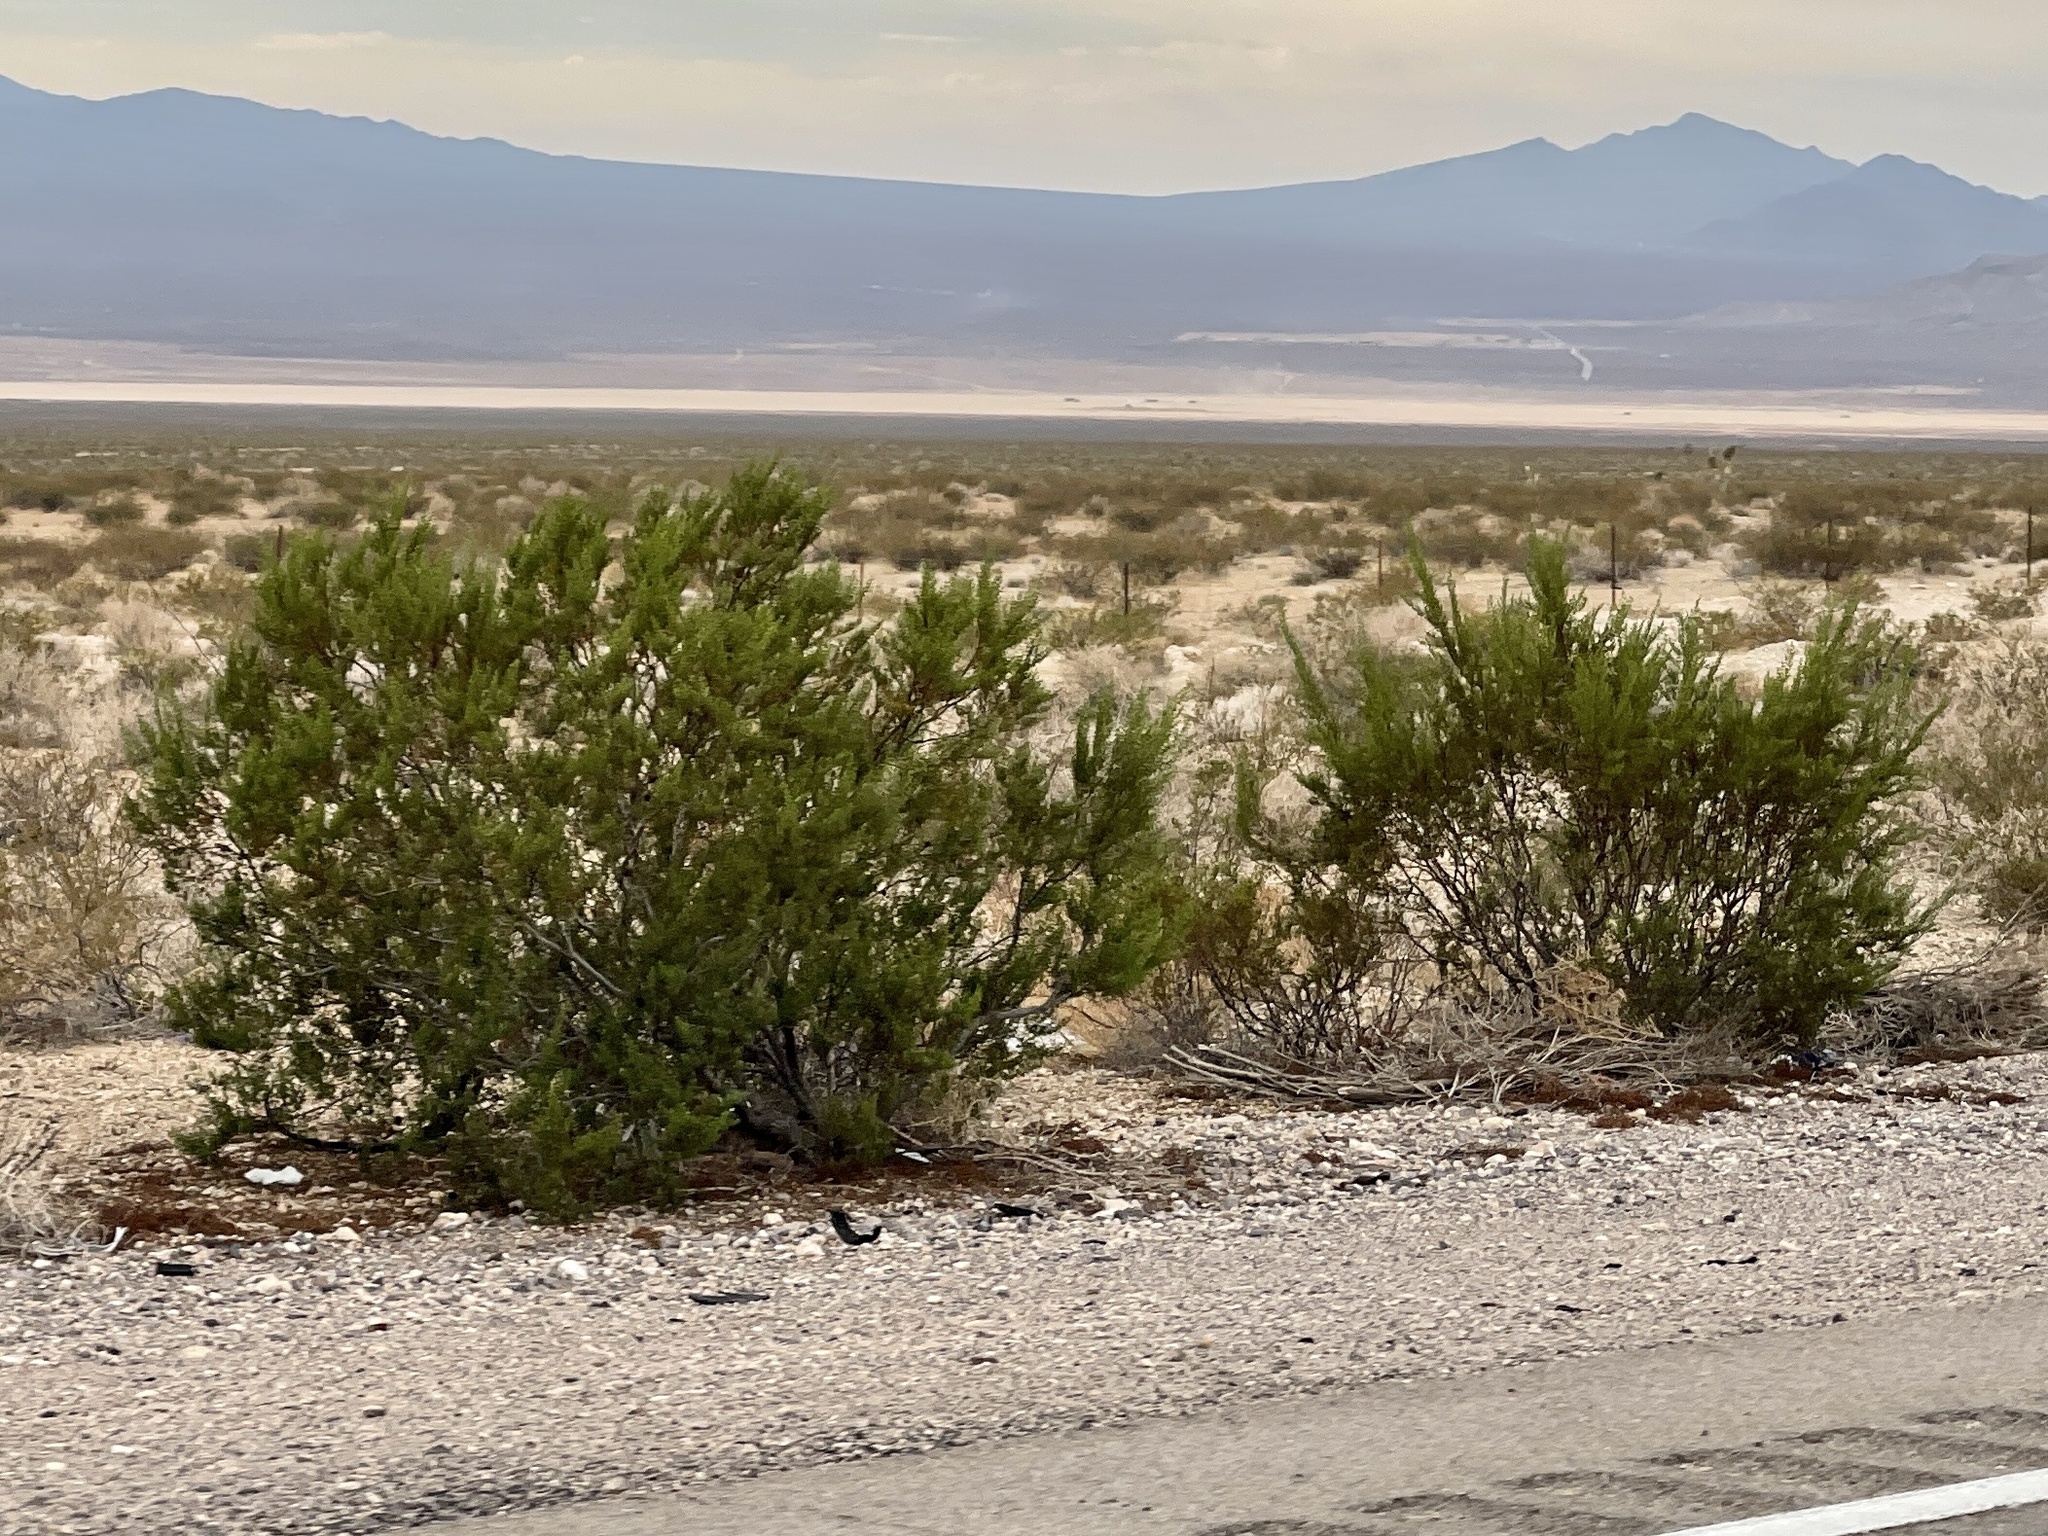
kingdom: Plantae
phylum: Tracheophyta
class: Magnoliopsida
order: Zygophyllales
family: Zygophyllaceae
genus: Larrea
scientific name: Larrea tridentata
